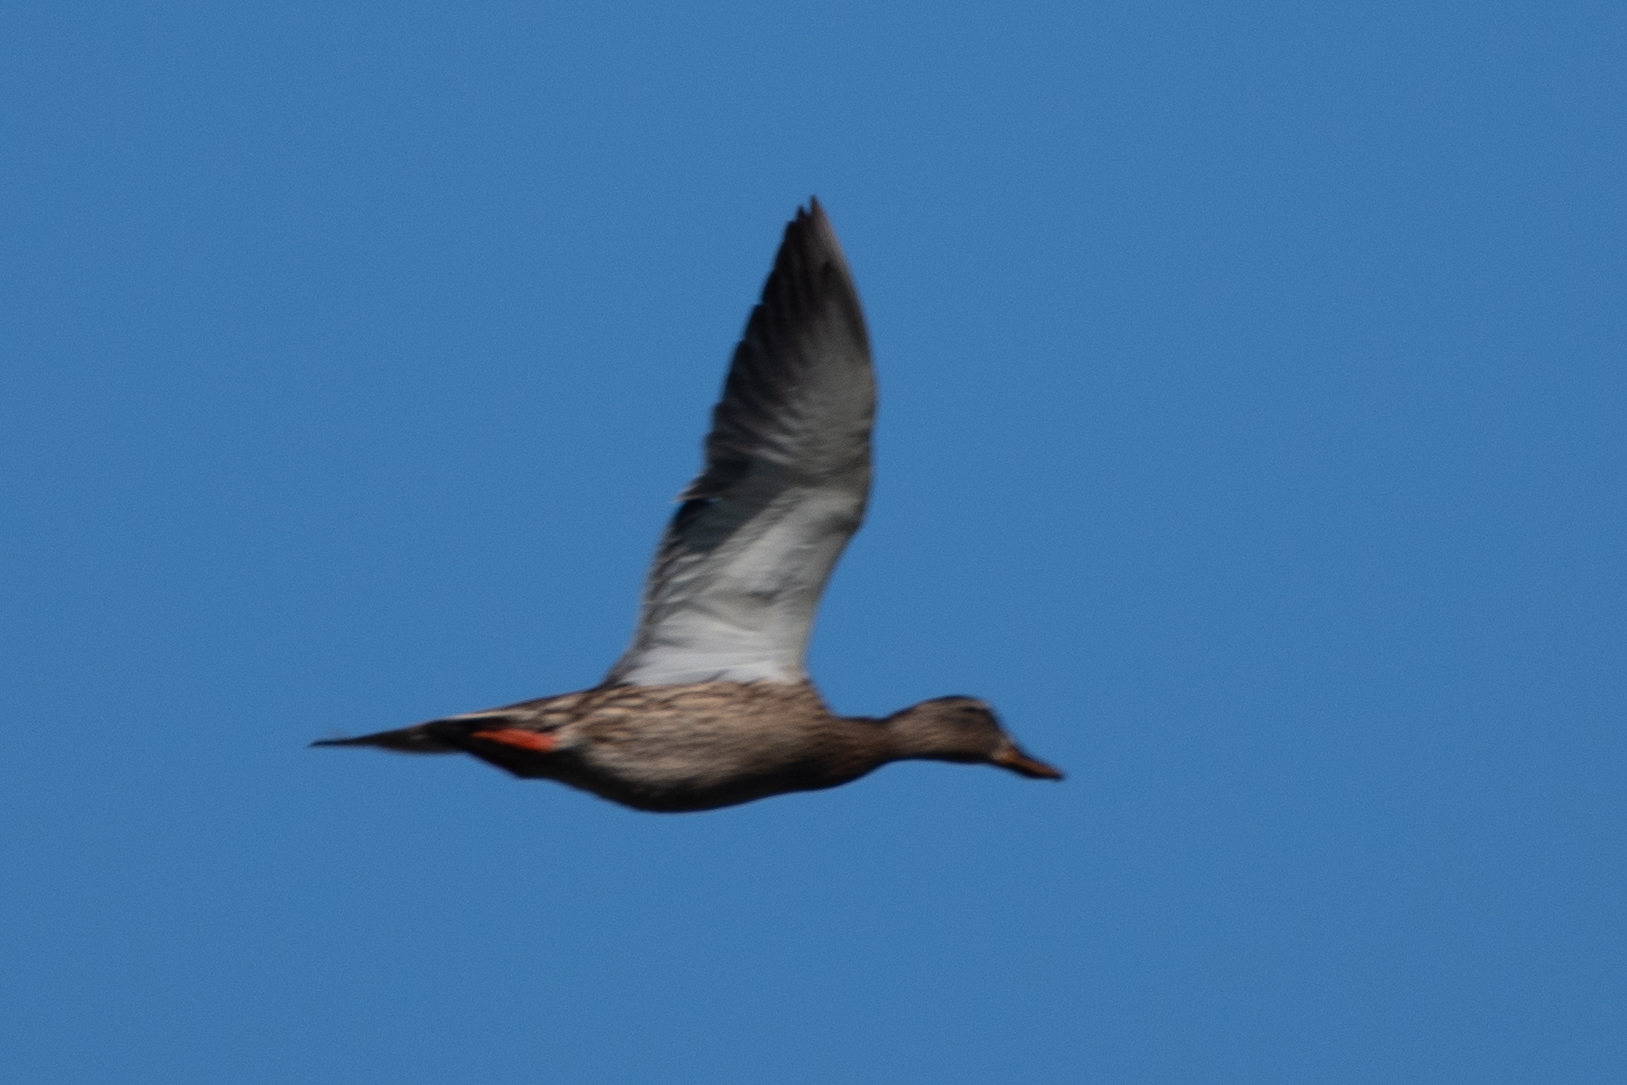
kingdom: Animalia
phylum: Chordata
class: Aves
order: Anseriformes
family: Anatidae
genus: Anas
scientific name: Anas platyrhynchos
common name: Mallard
